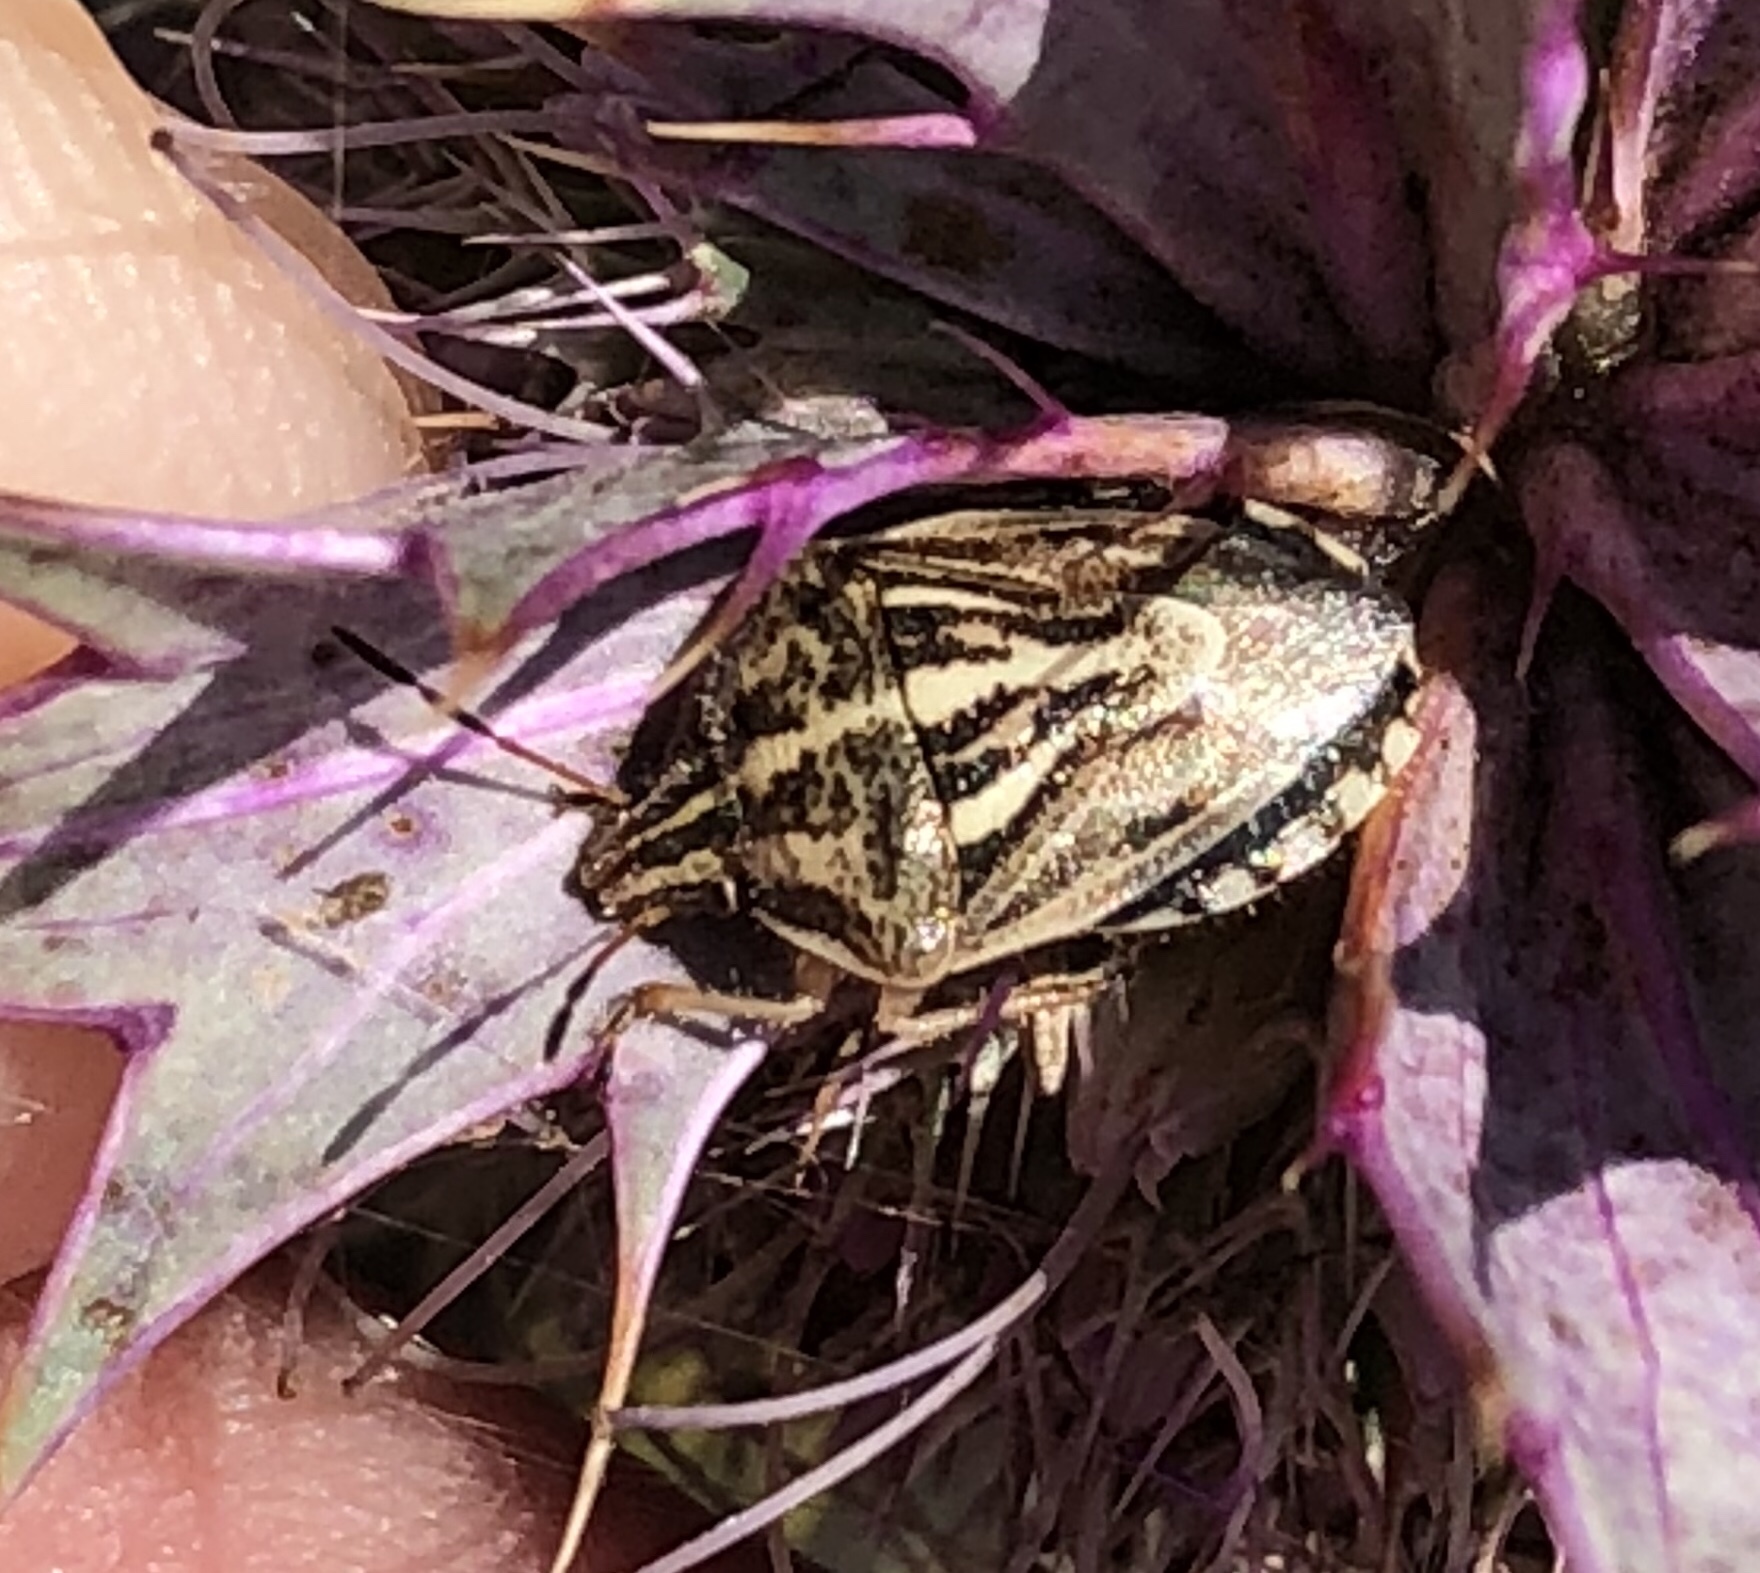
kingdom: Animalia
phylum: Arthropoda
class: Insecta
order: Hemiptera
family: Pentatomidae
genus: Trichopepla
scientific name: Trichopepla semivittata
